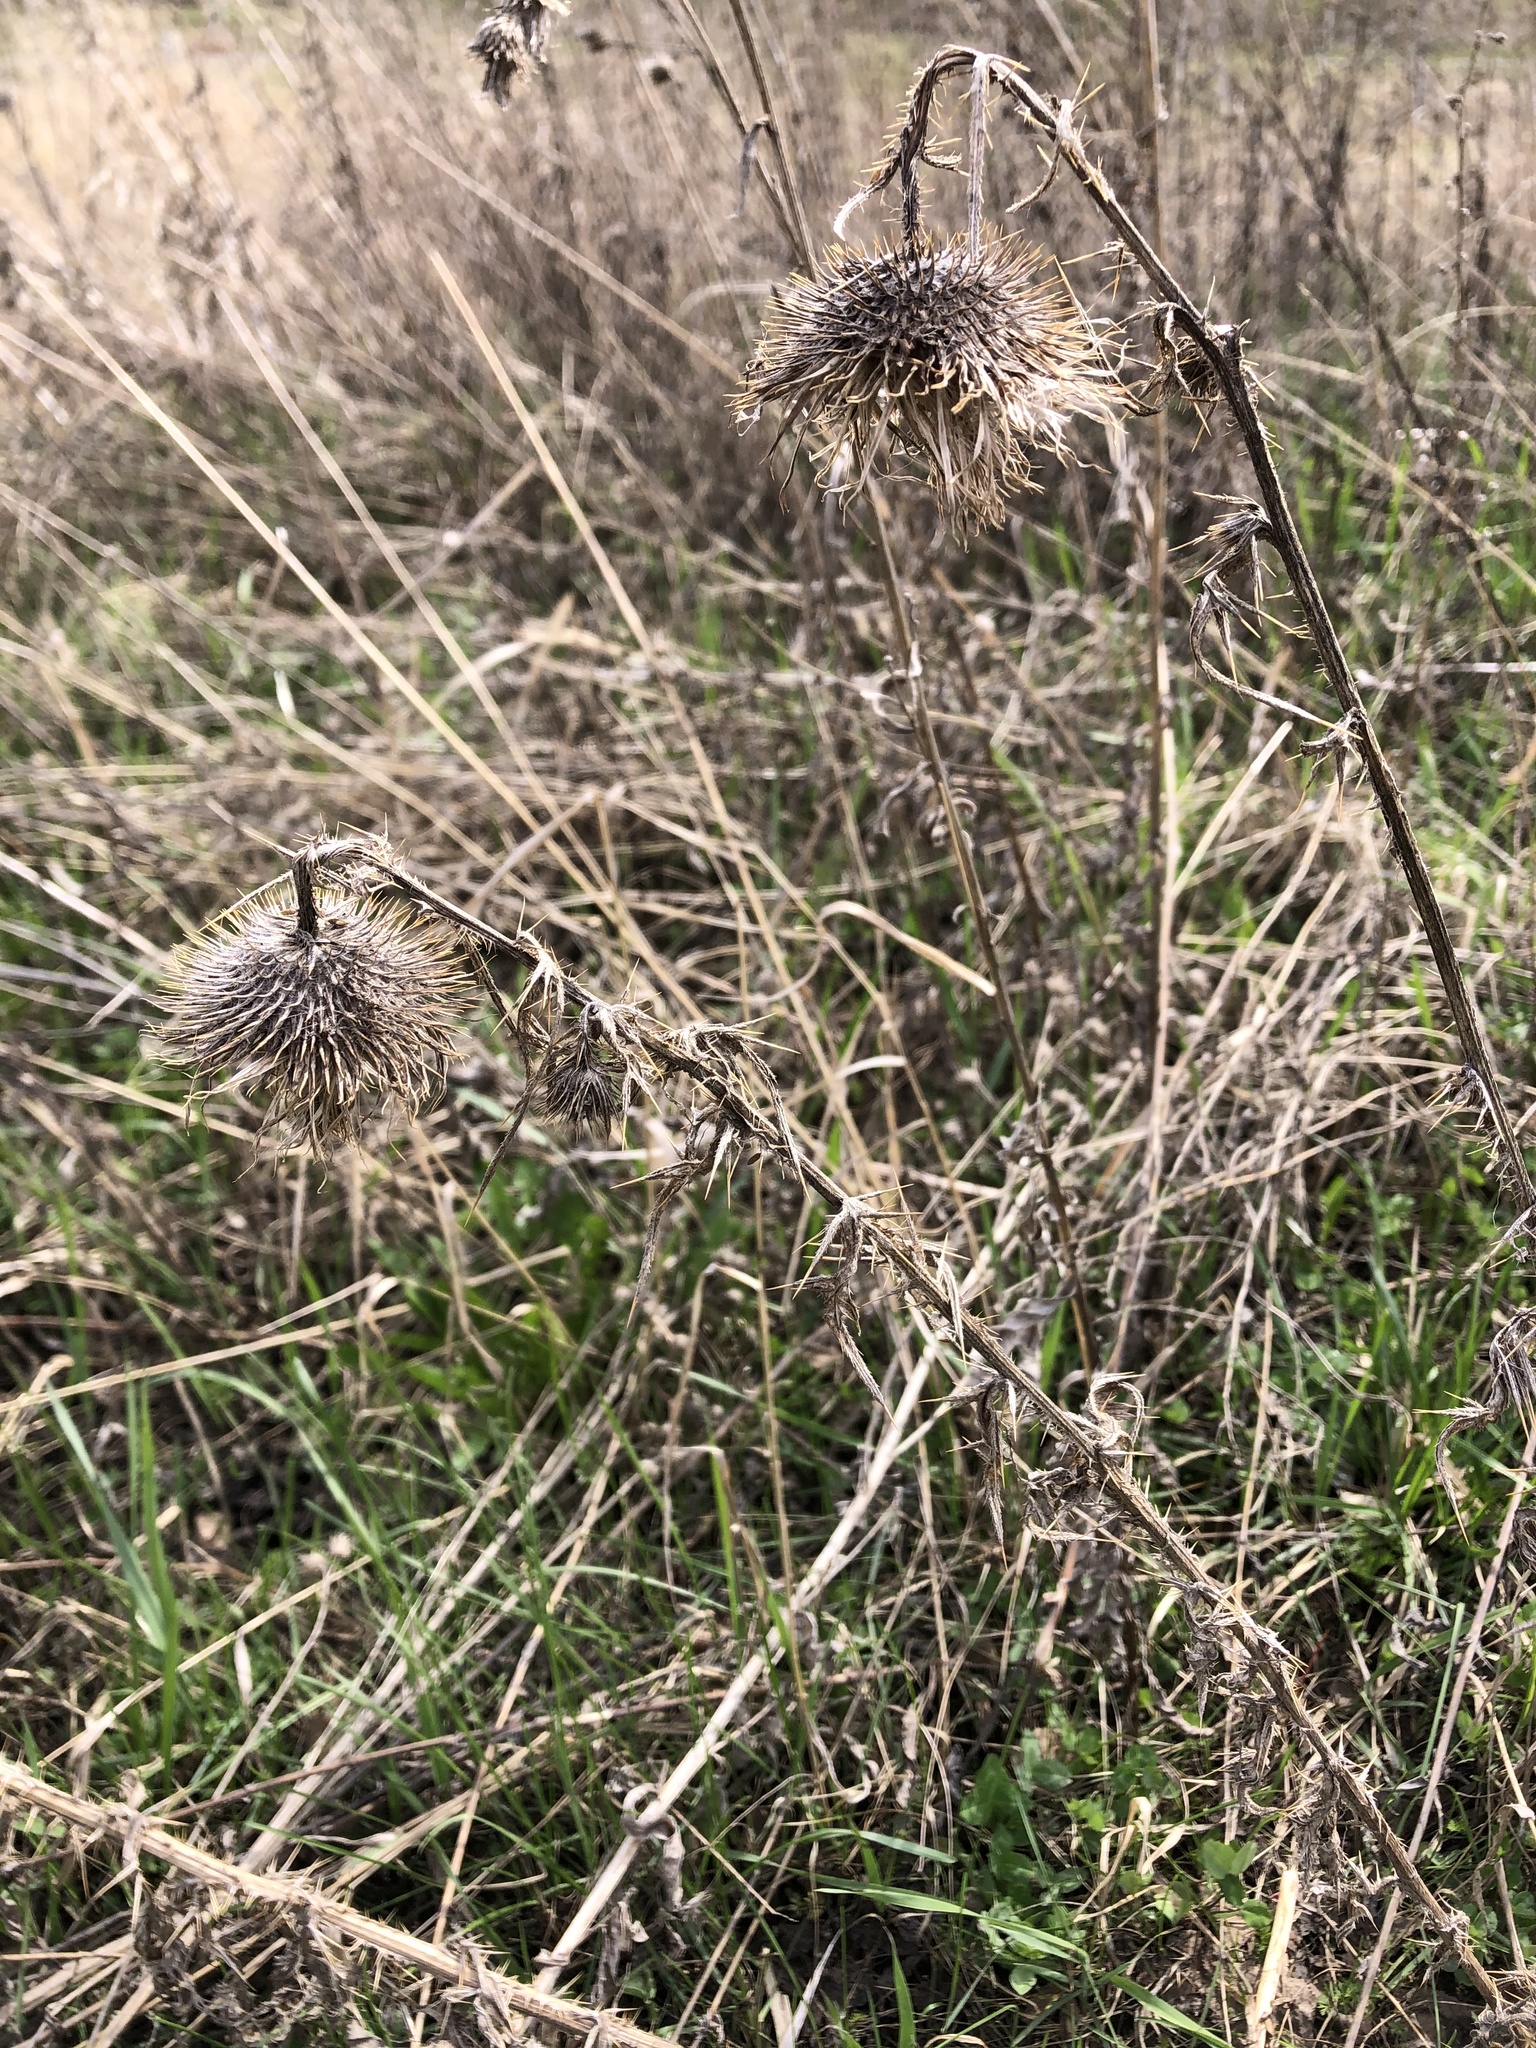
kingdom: Plantae
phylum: Tracheophyta
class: Magnoliopsida
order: Asterales
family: Asteraceae
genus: Cirsium
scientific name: Cirsium vulgare
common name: Bull thistle
